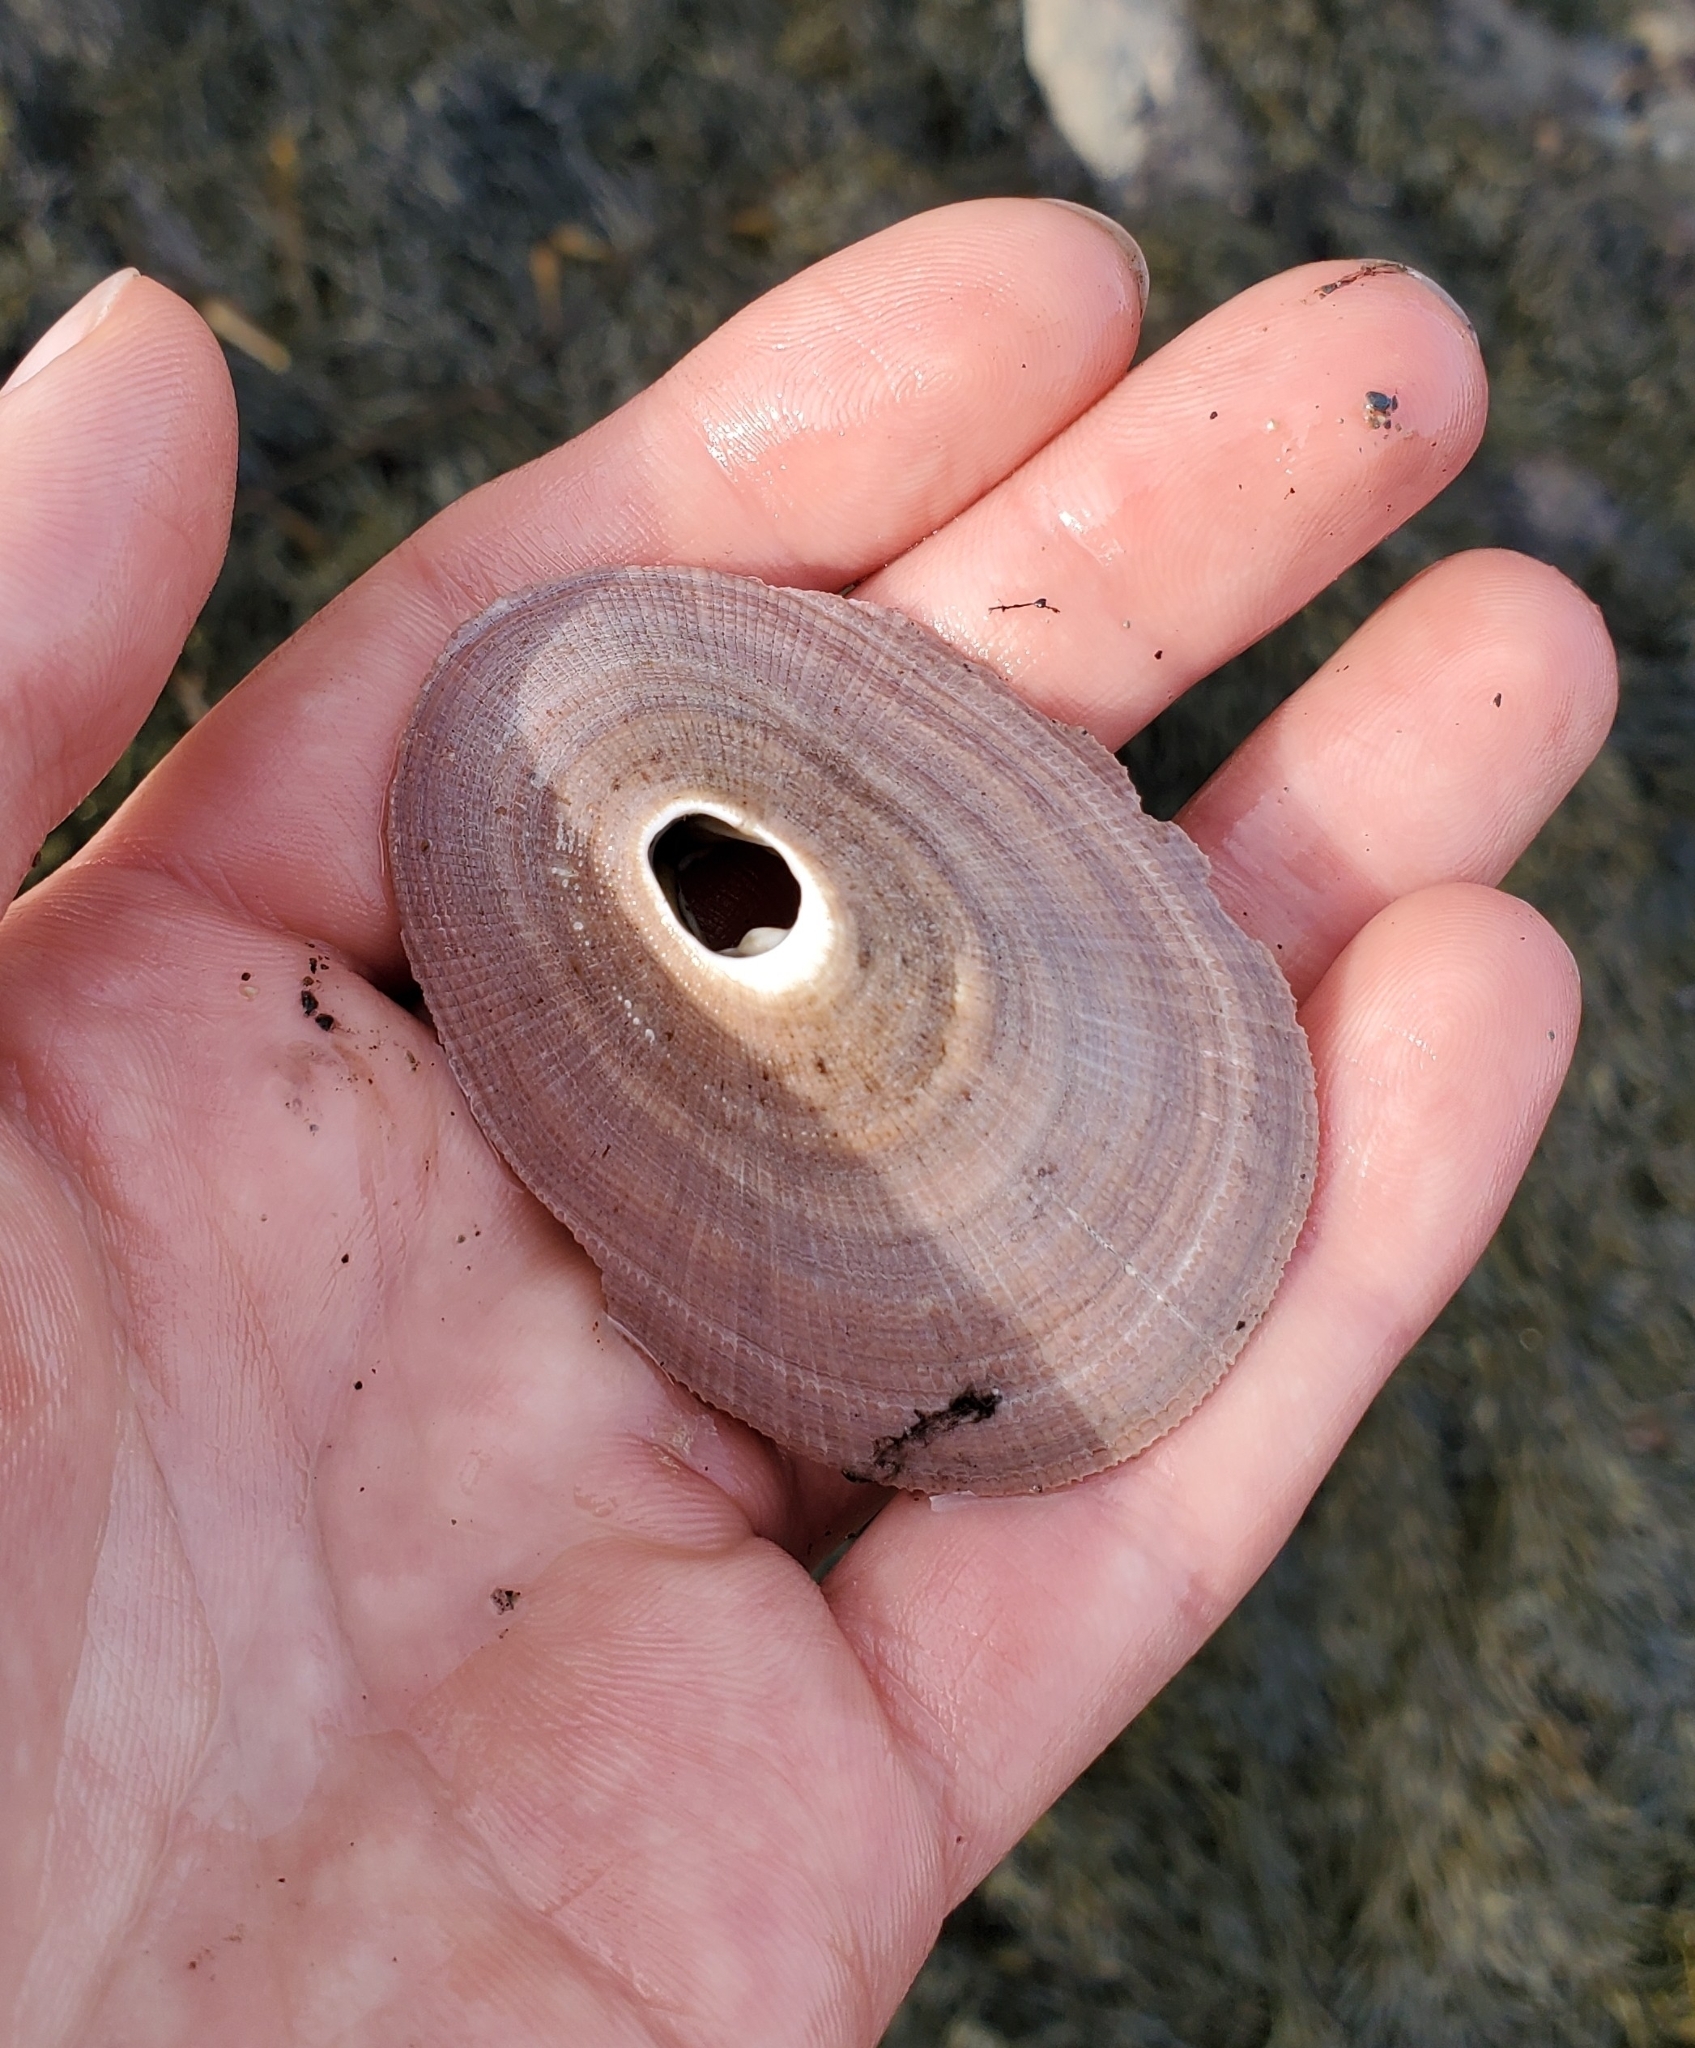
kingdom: Animalia
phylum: Mollusca
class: Gastropoda
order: Lepetellida
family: Fissurellidae
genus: Megathura
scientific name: Megathura crenulata
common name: Giant keyhole limpet
